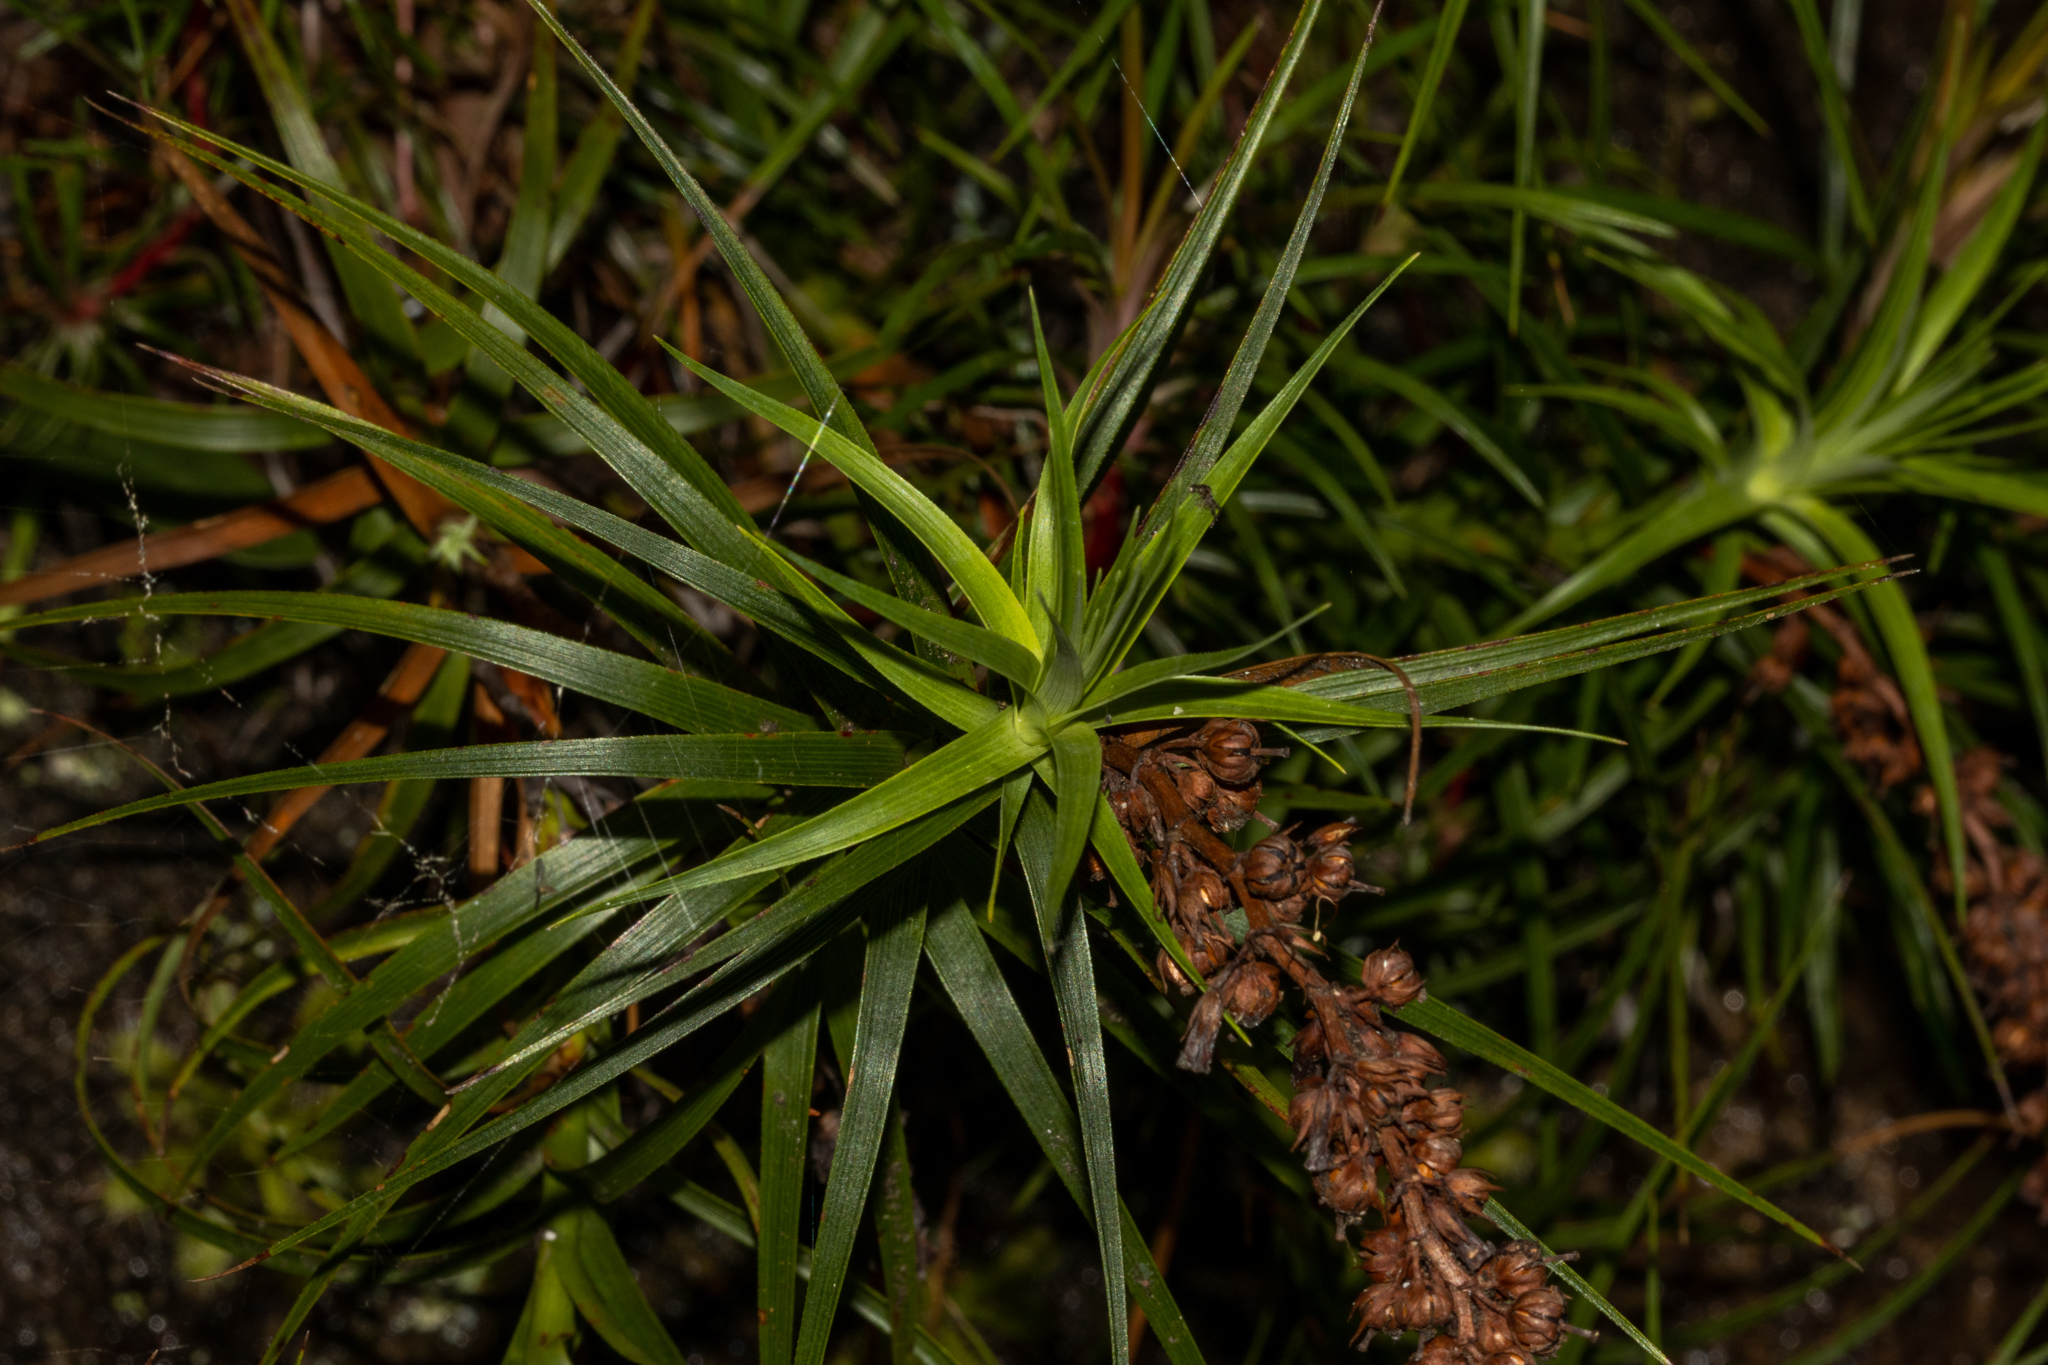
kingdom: Plantae
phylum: Tracheophyta
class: Magnoliopsida
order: Ericales
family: Ericaceae
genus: Dracophyllum
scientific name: Dracophyllum secundum
